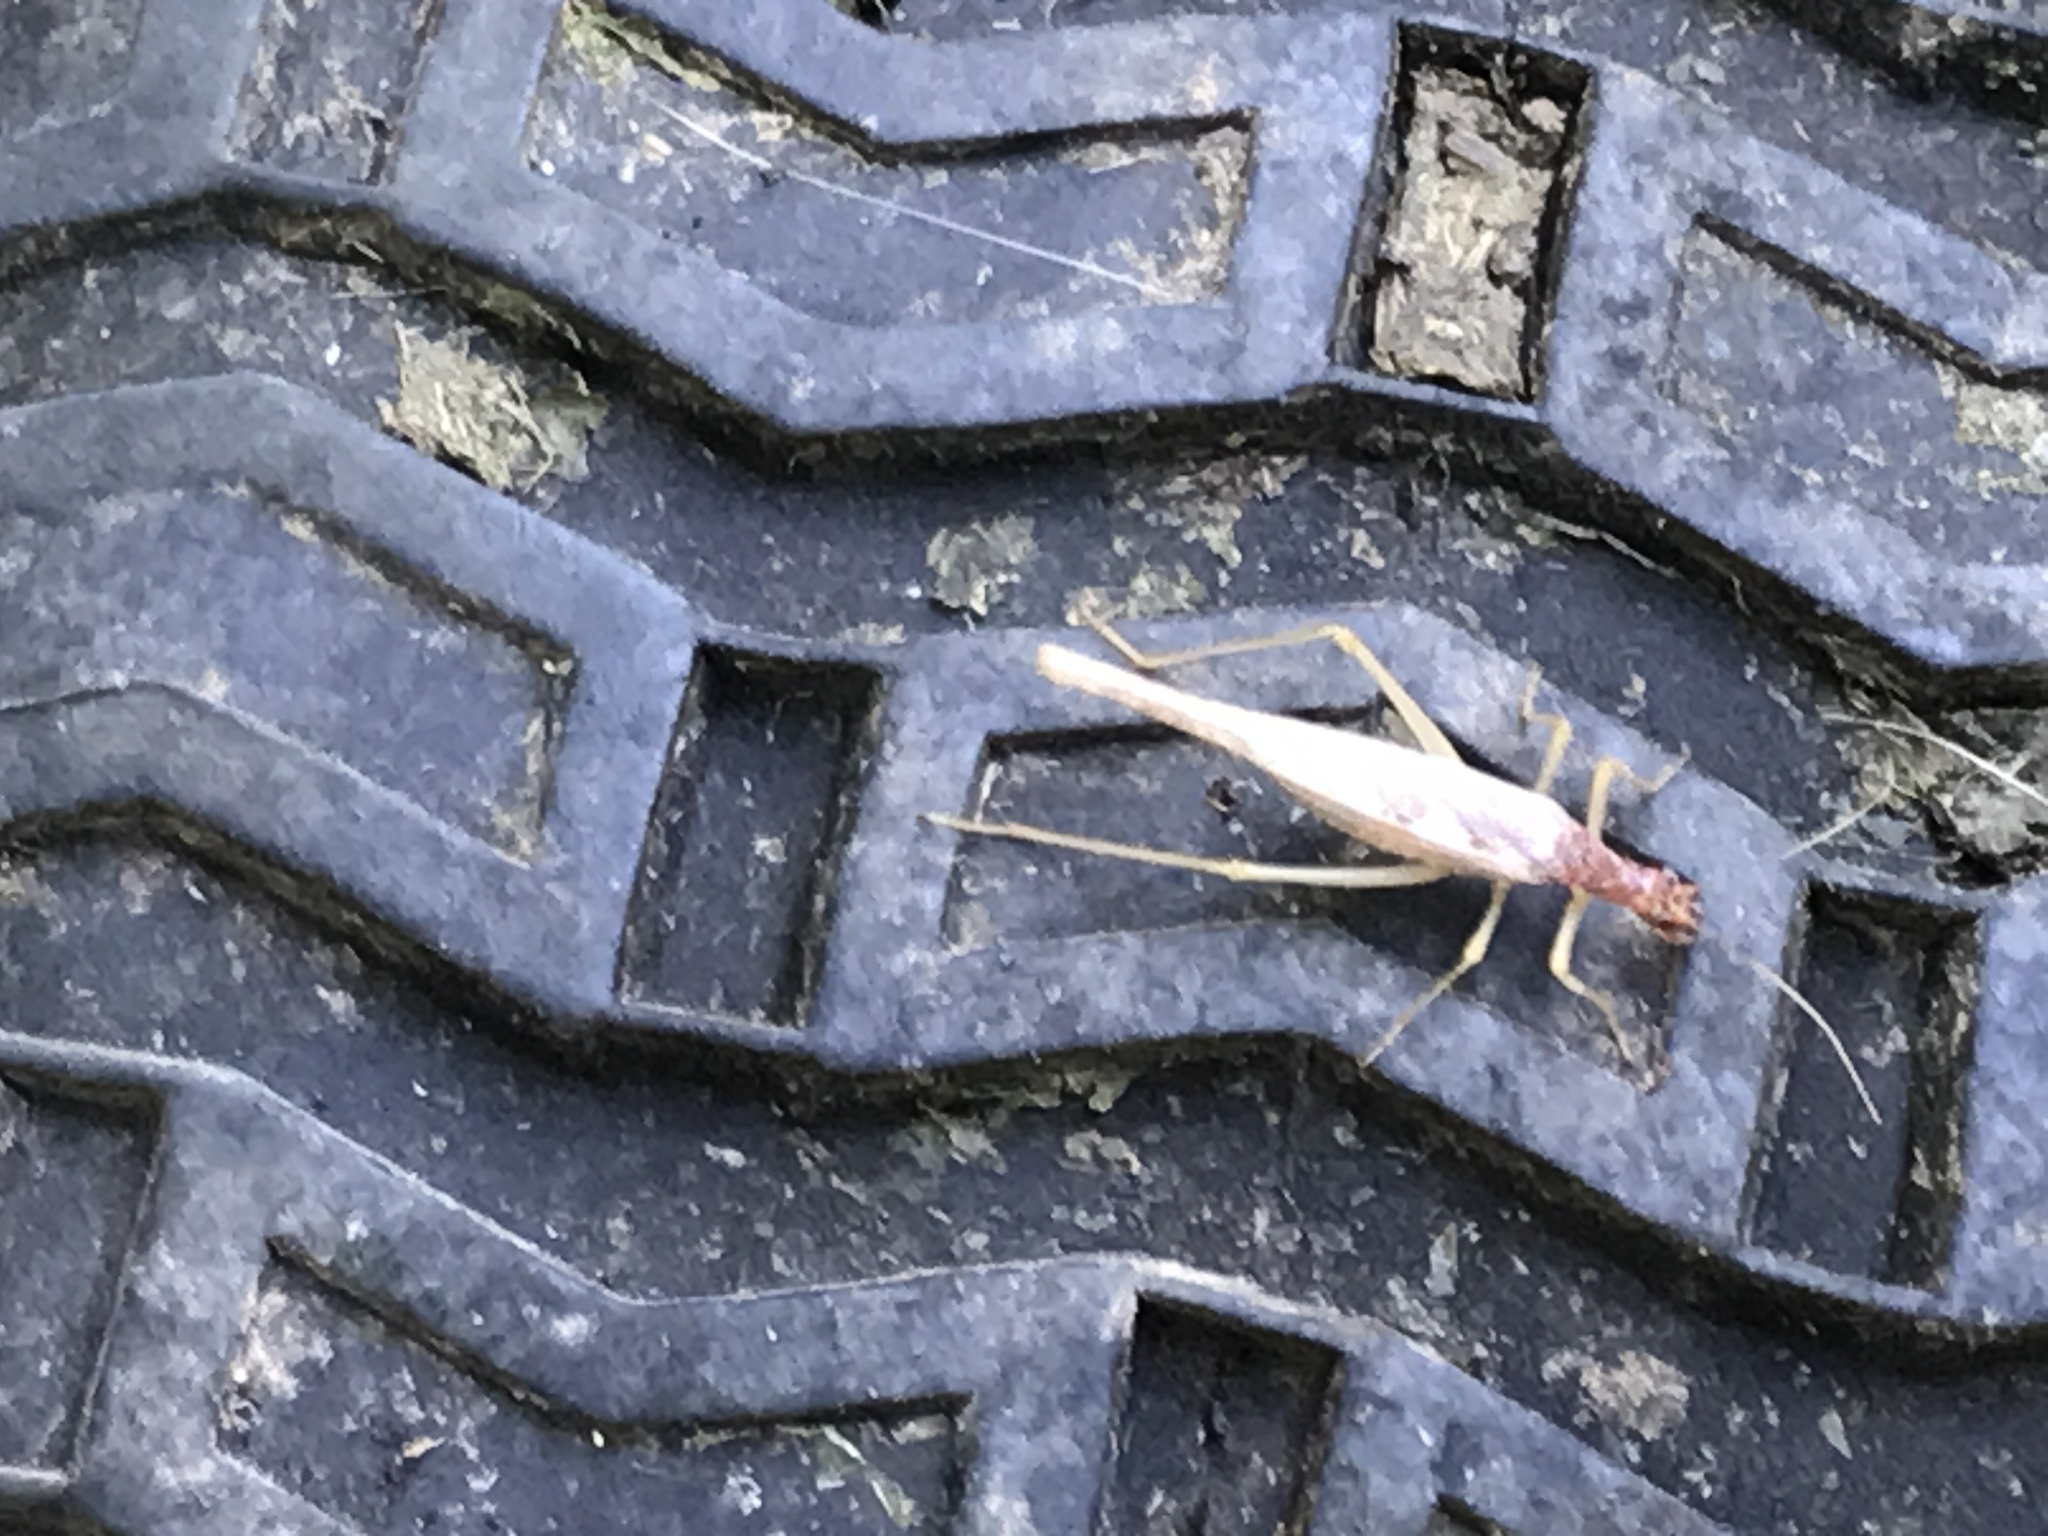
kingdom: Animalia
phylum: Arthropoda
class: Insecta
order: Orthoptera
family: Gryllidae
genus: Neoxabea
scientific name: Neoxabea bipunctata
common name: Two-spotted tree cricket
